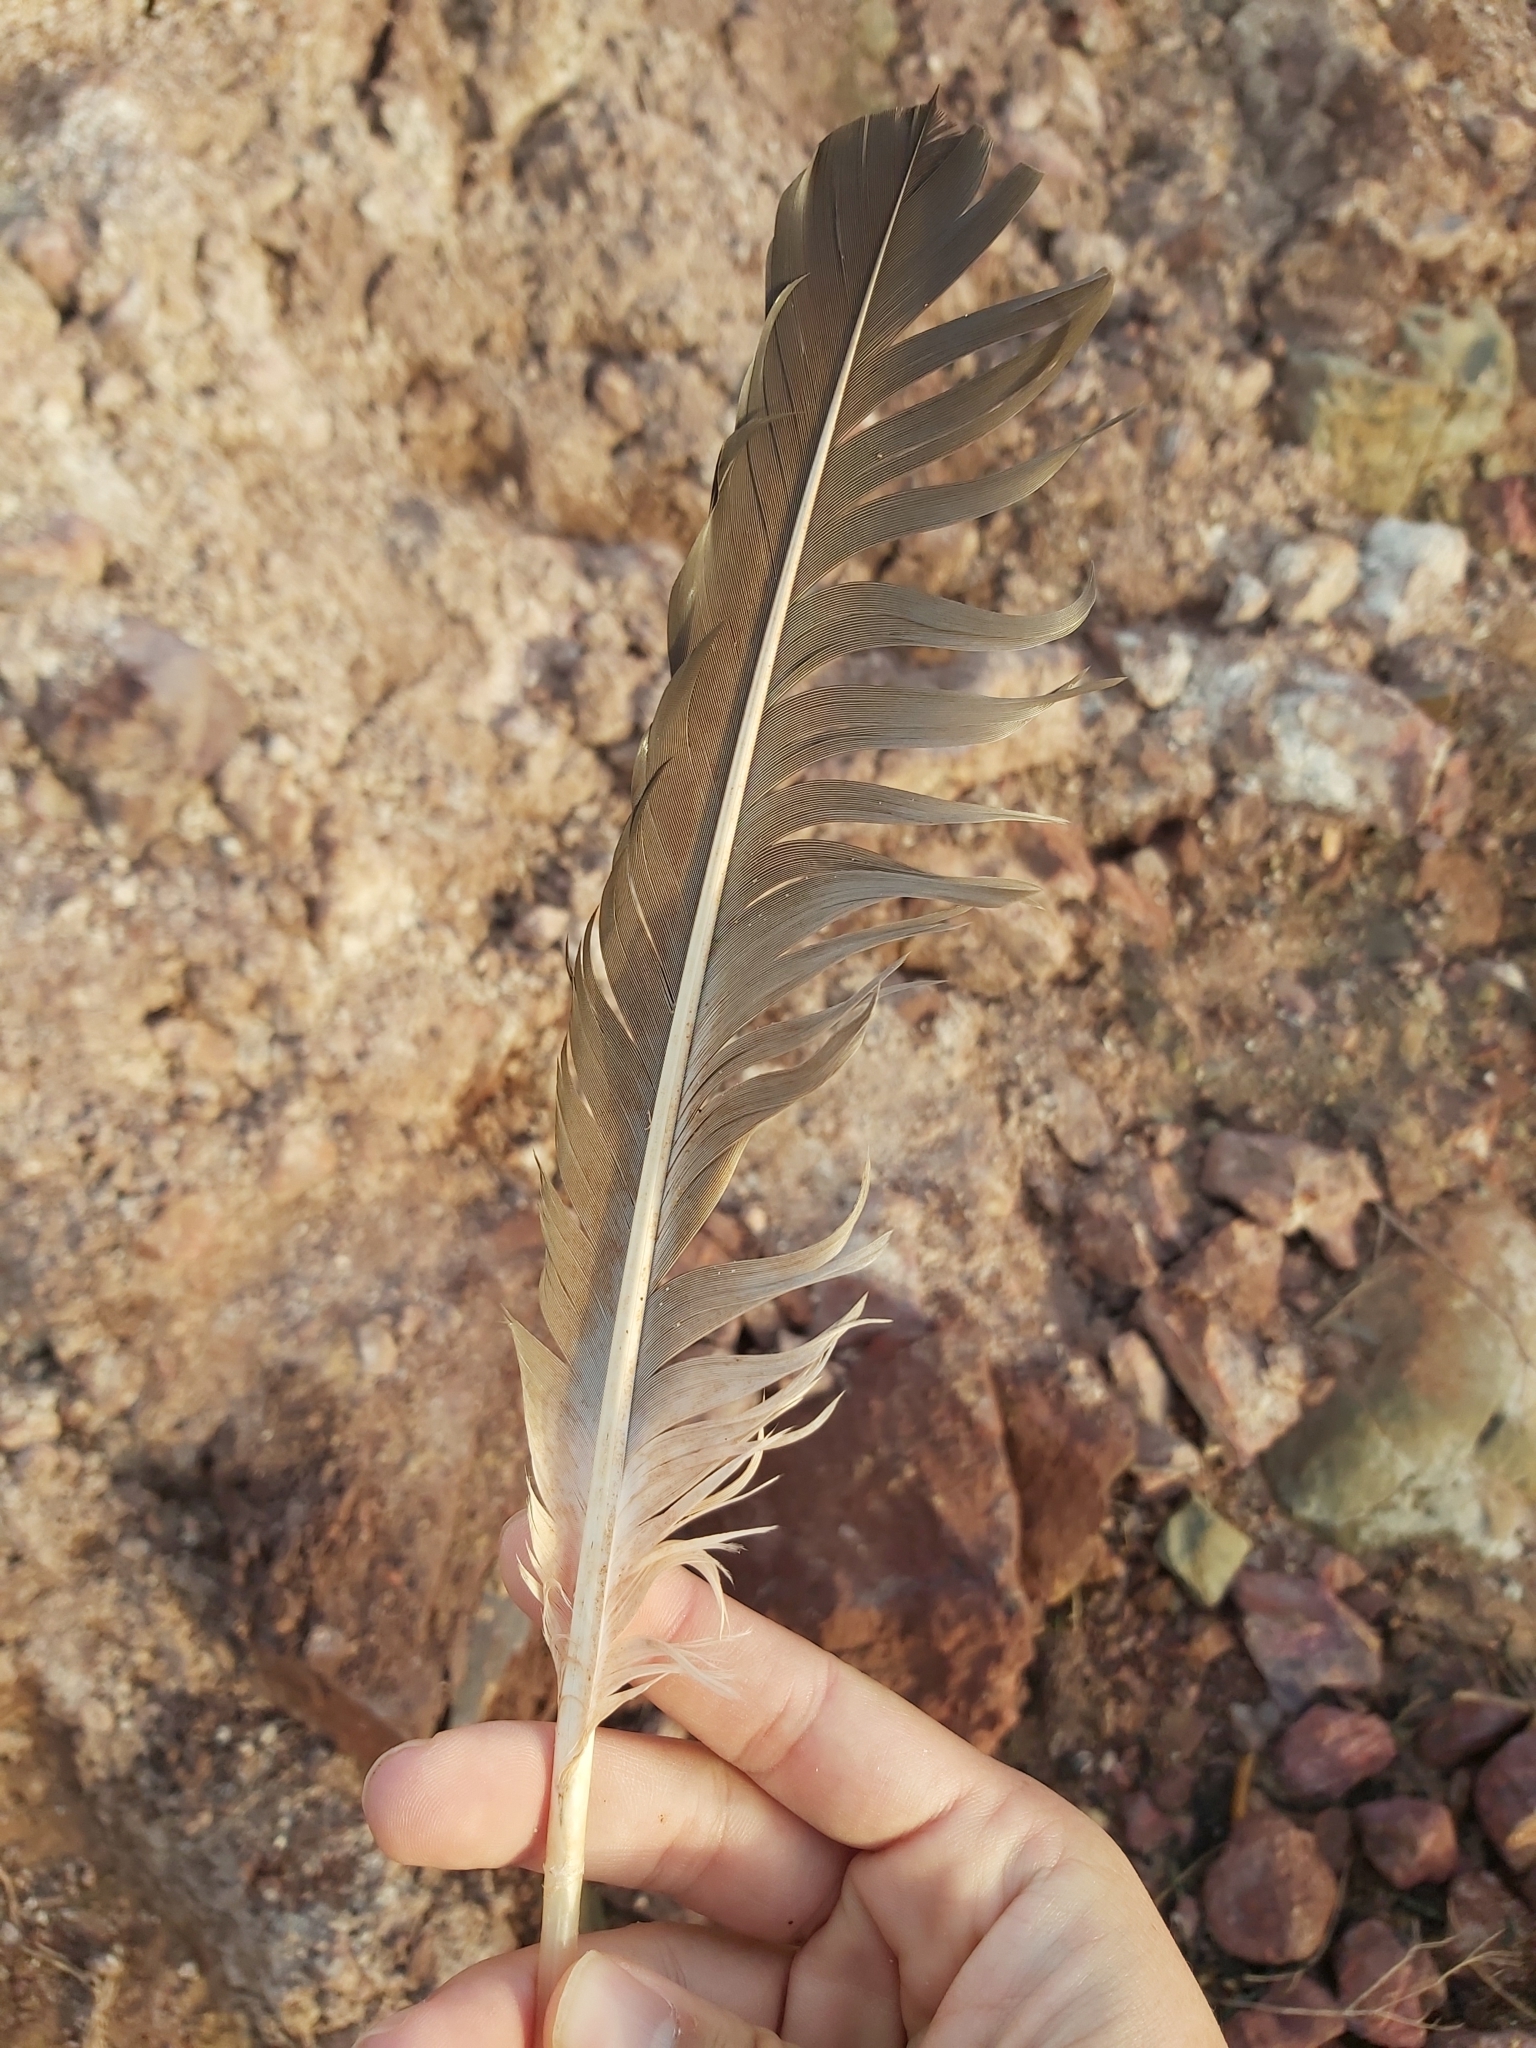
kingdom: Animalia
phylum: Chordata
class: Aves
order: Pelecaniformes
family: Pelecanidae
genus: Pelecanus
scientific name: Pelecanus conspicillatus
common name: Australian pelican
